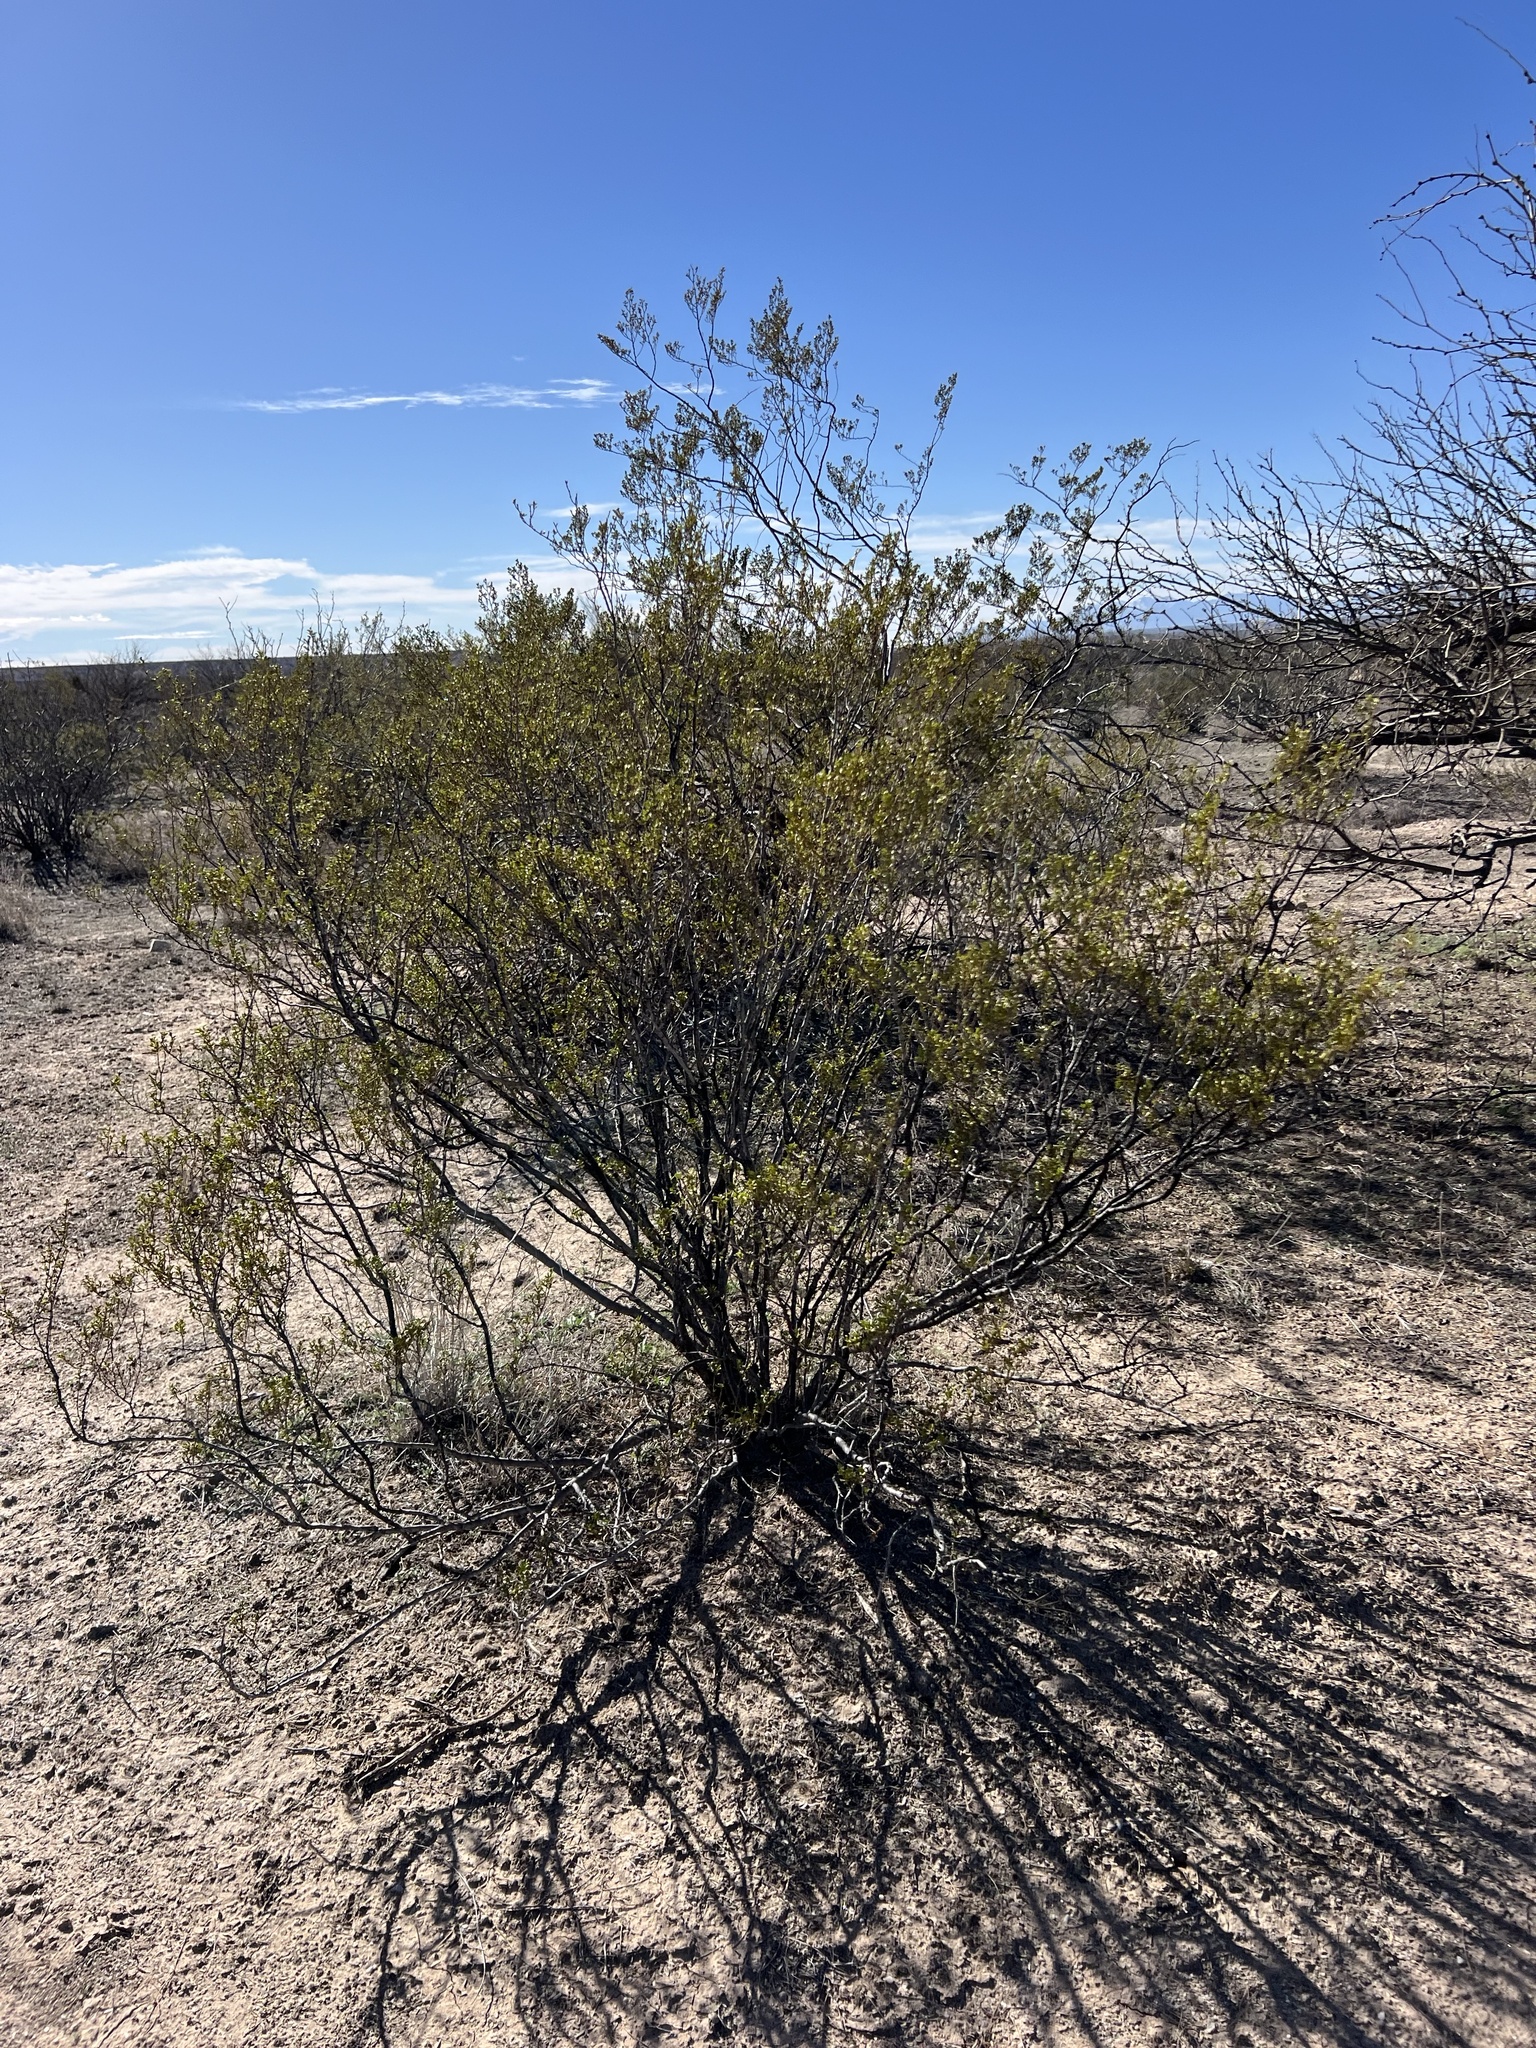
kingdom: Plantae
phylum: Tracheophyta
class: Magnoliopsida
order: Zygophyllales
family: Zygophyllaceae
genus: Larrea
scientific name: Larrea tridentata
